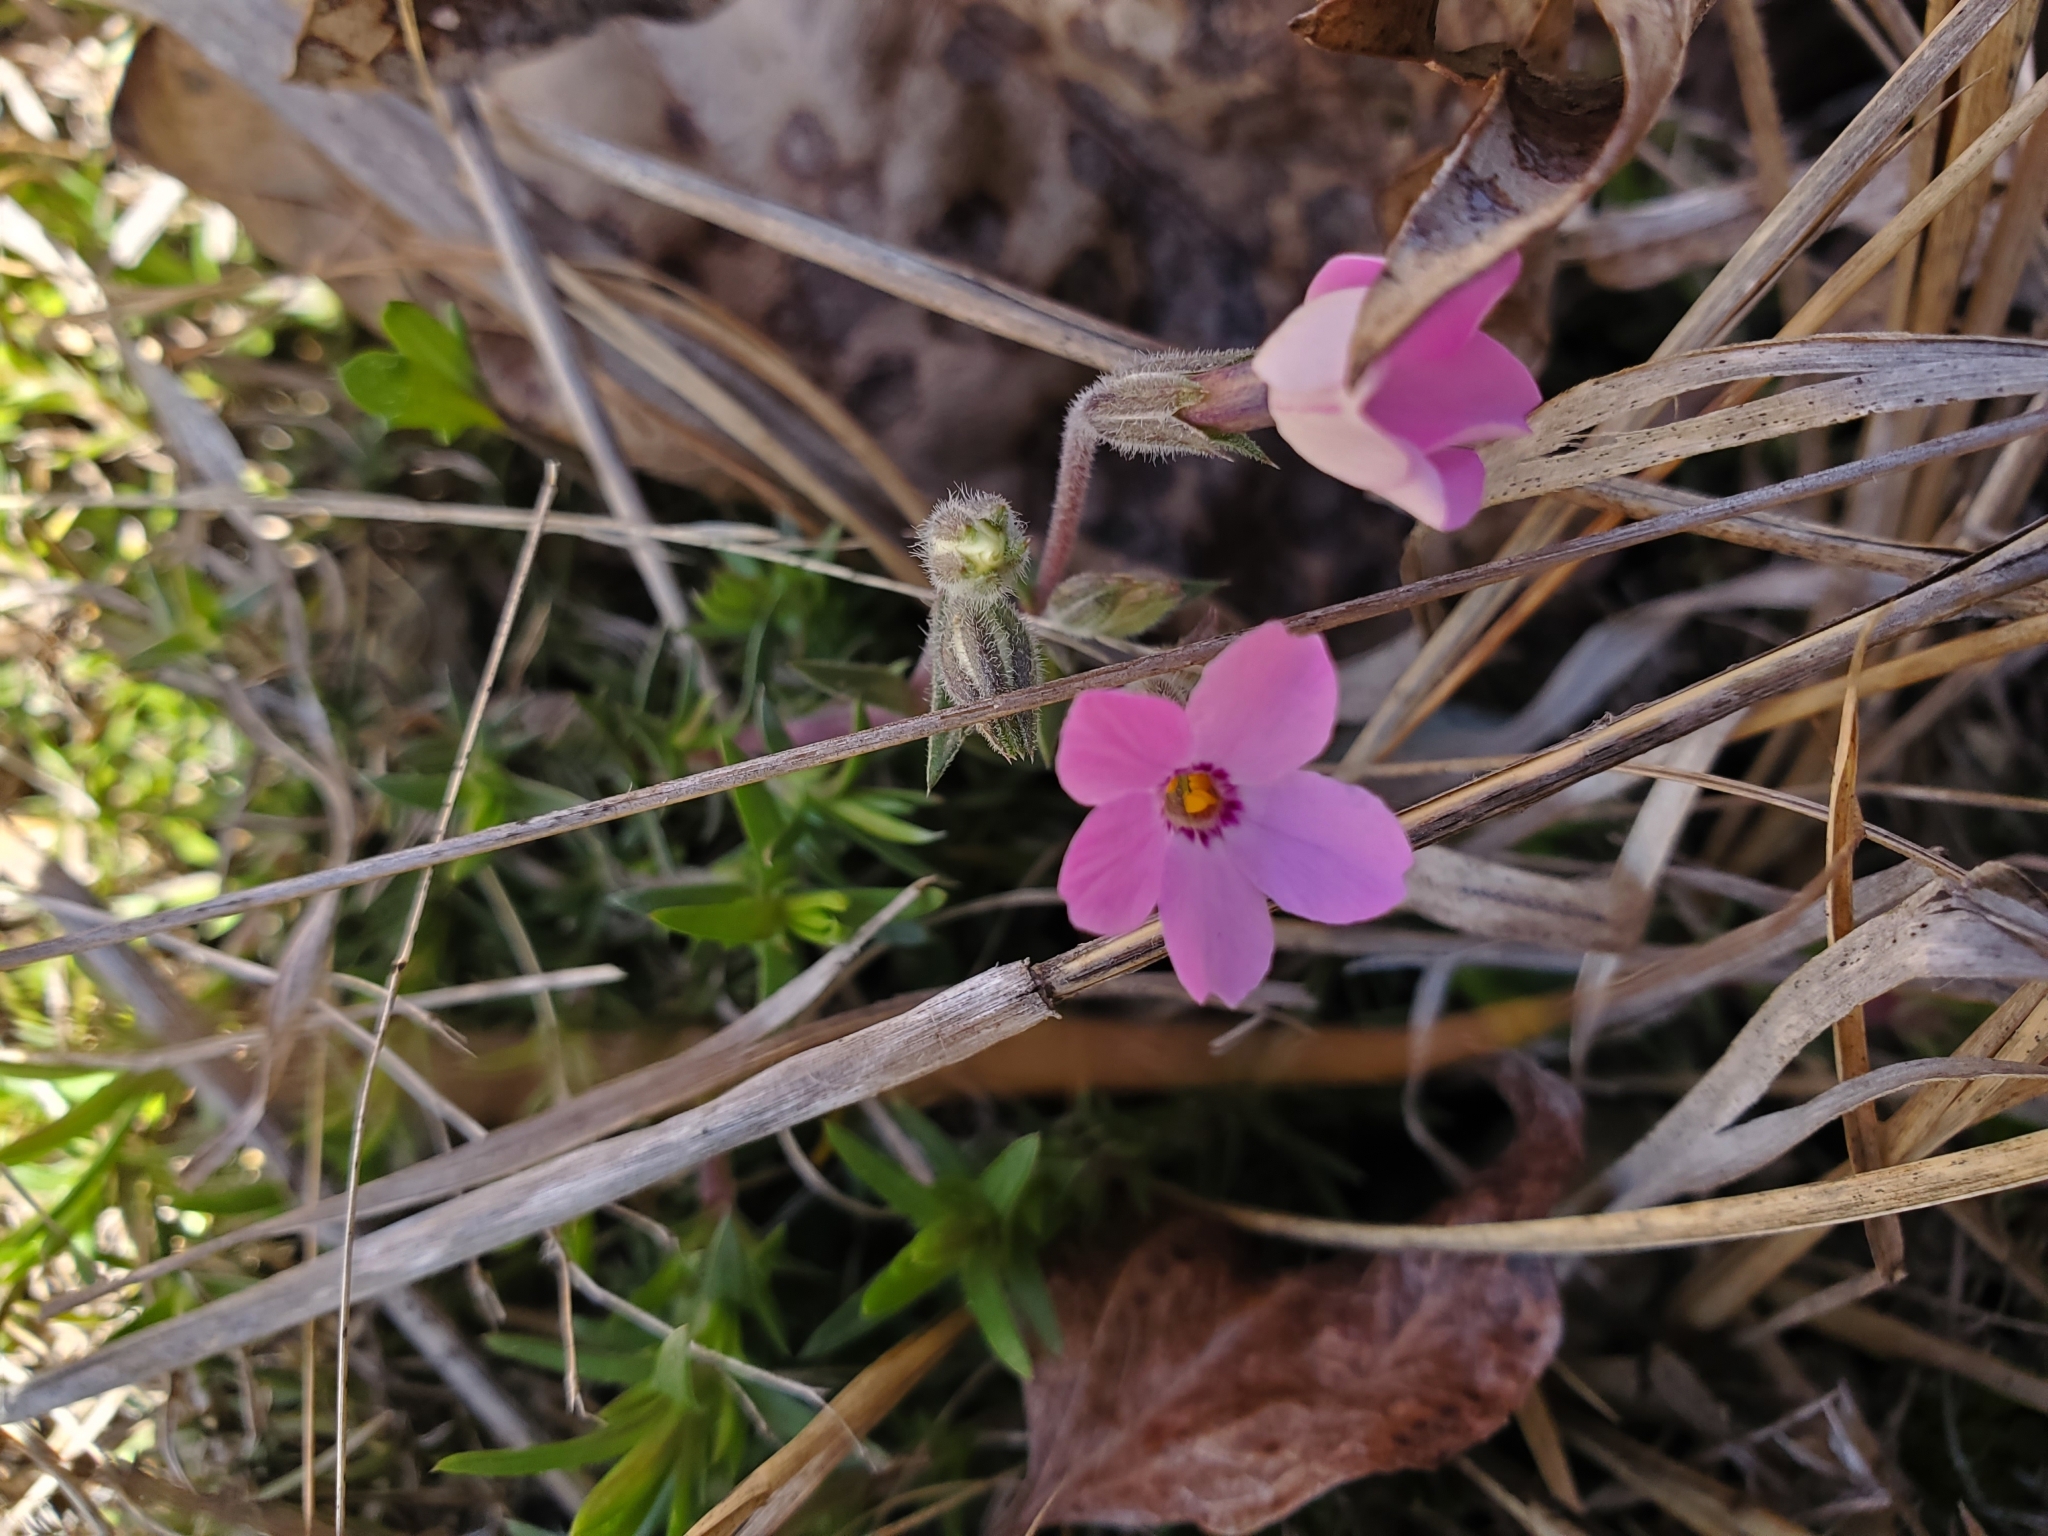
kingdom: Plantae
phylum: Tracheophyta
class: Magnoliopsida
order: Ericales
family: Polemoniaceae
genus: Phlox
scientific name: Phlox subulata
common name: Moss phlox
